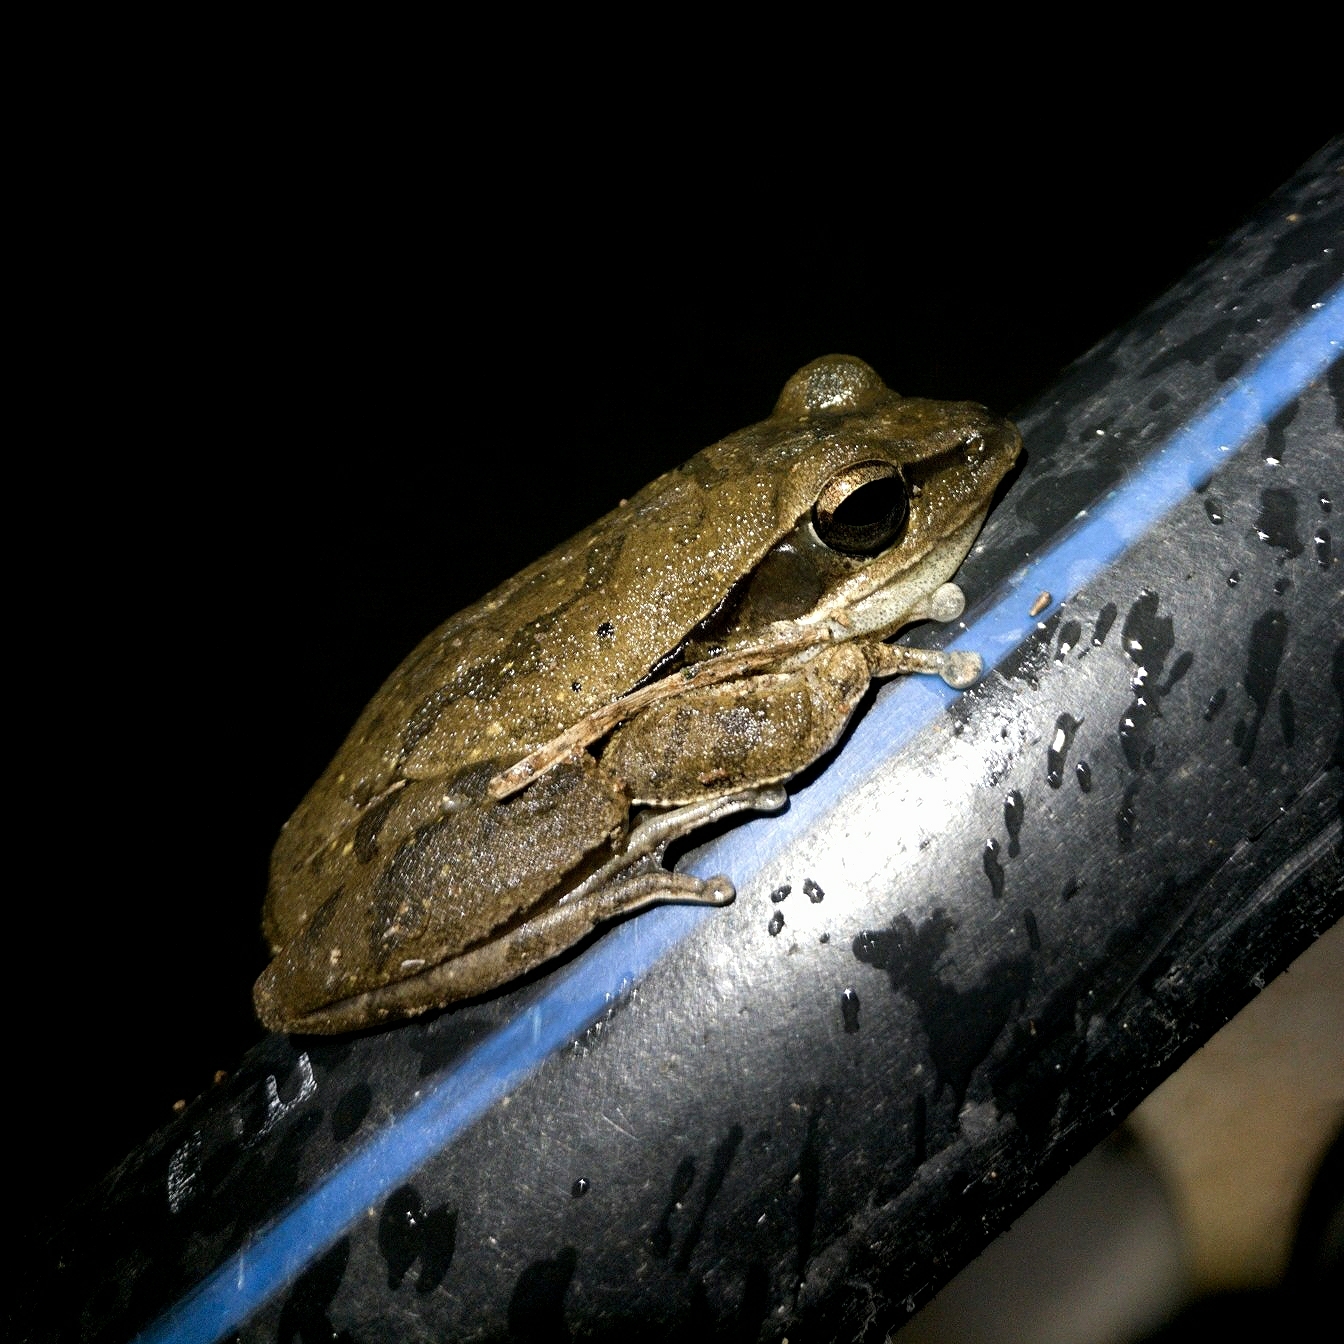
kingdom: Animalia
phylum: Chordata
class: Amphibia
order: Anura
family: Rhacophoridae
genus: Polypedates
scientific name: Polypedates maculatus
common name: Himalayan tree frog
